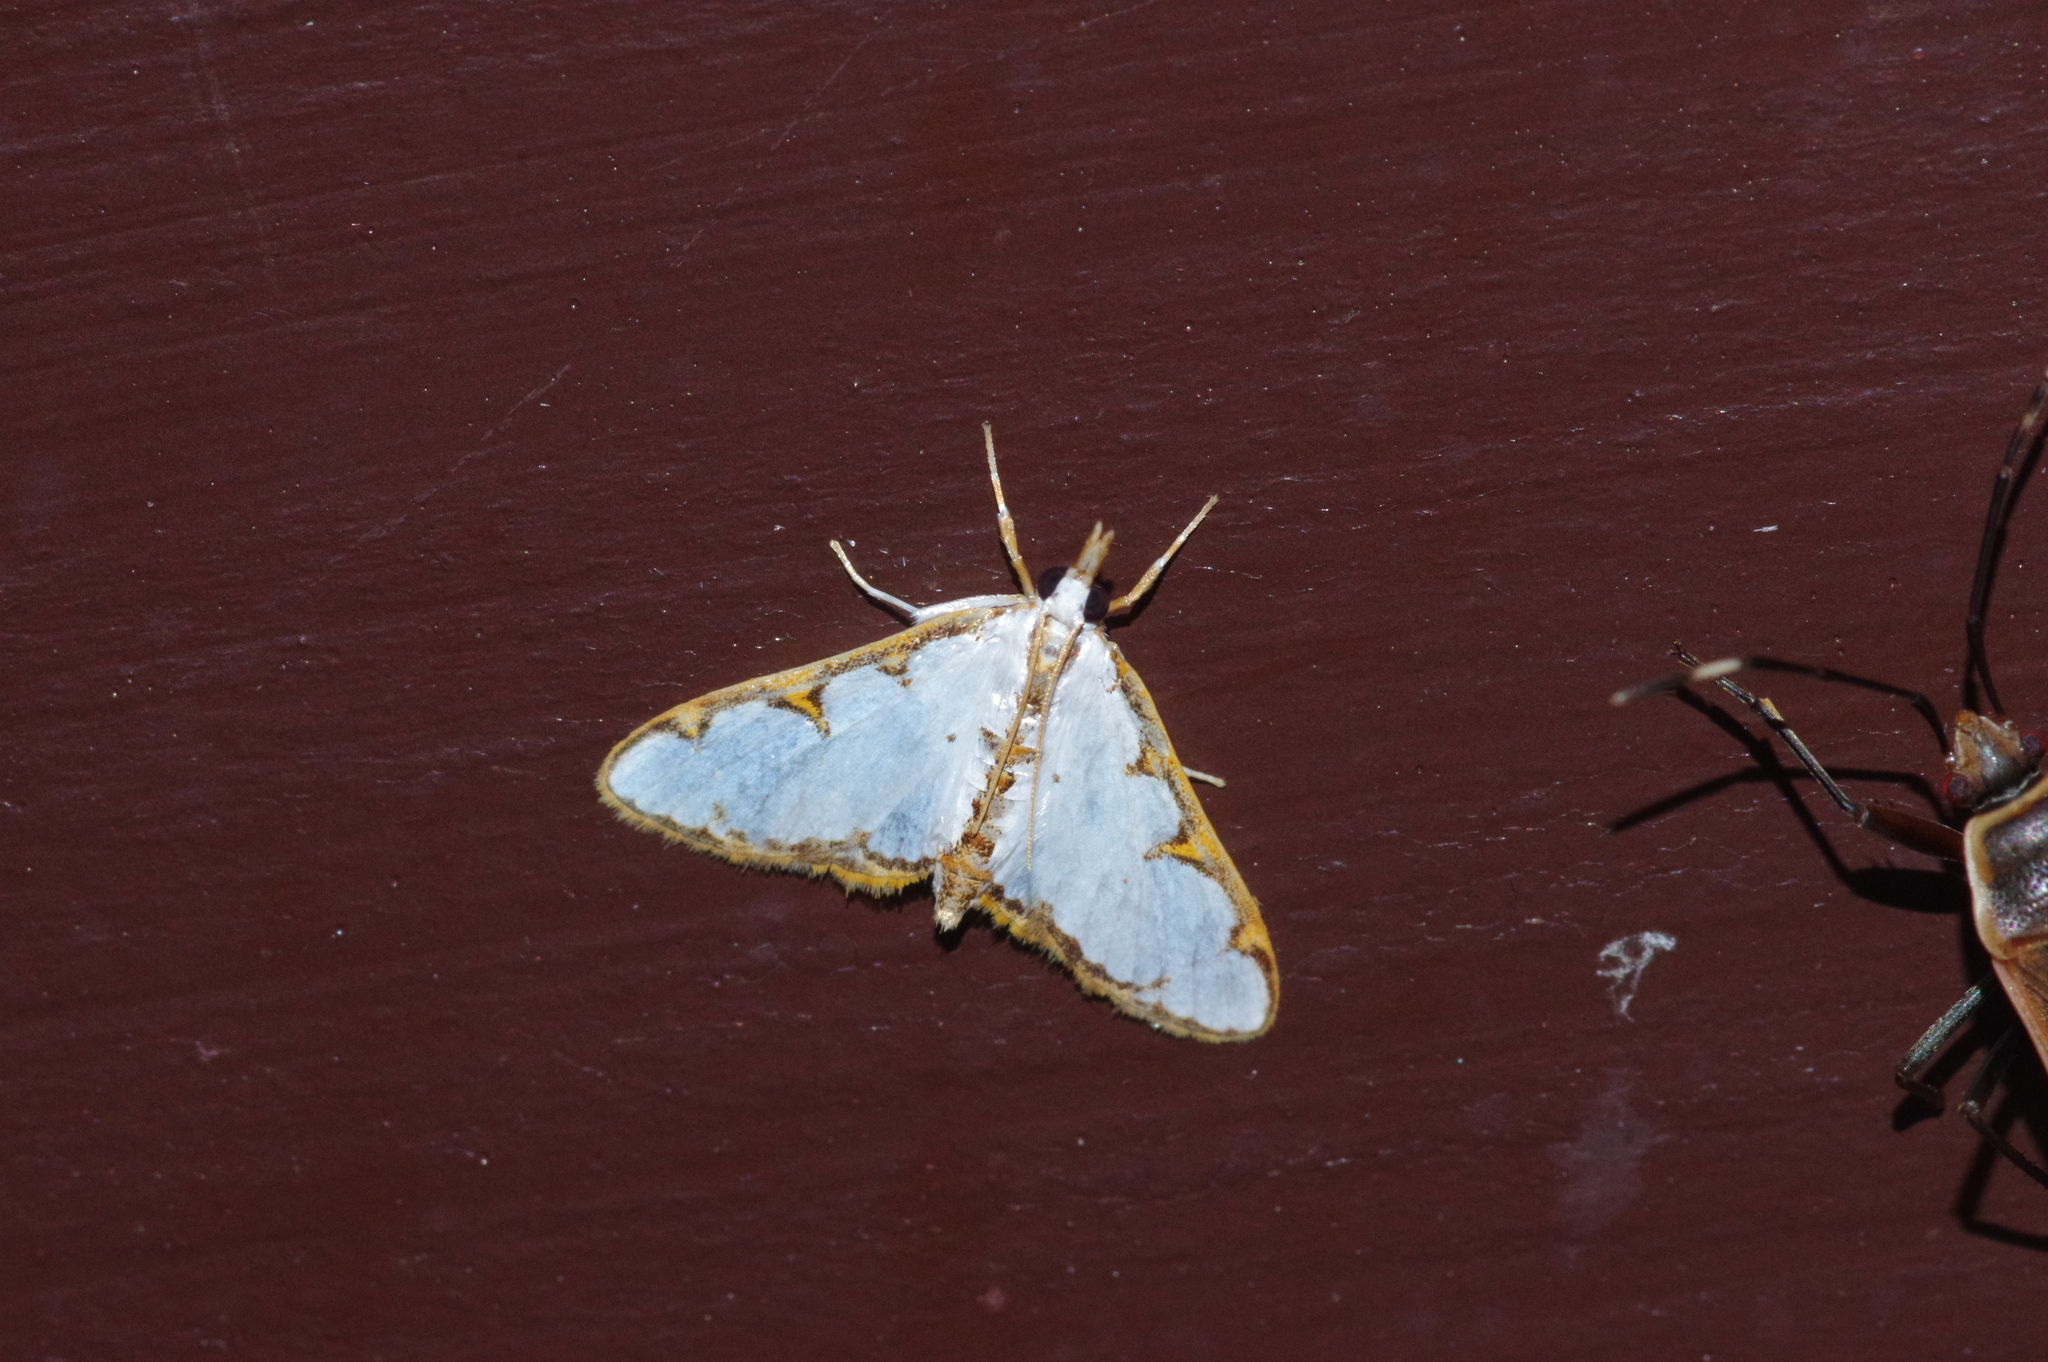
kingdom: Animalia
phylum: Arthropoda
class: Insecta
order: Lepidoptera
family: Crambidae
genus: Cirrhochrista
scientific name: Cirrhochrista brizoalis
